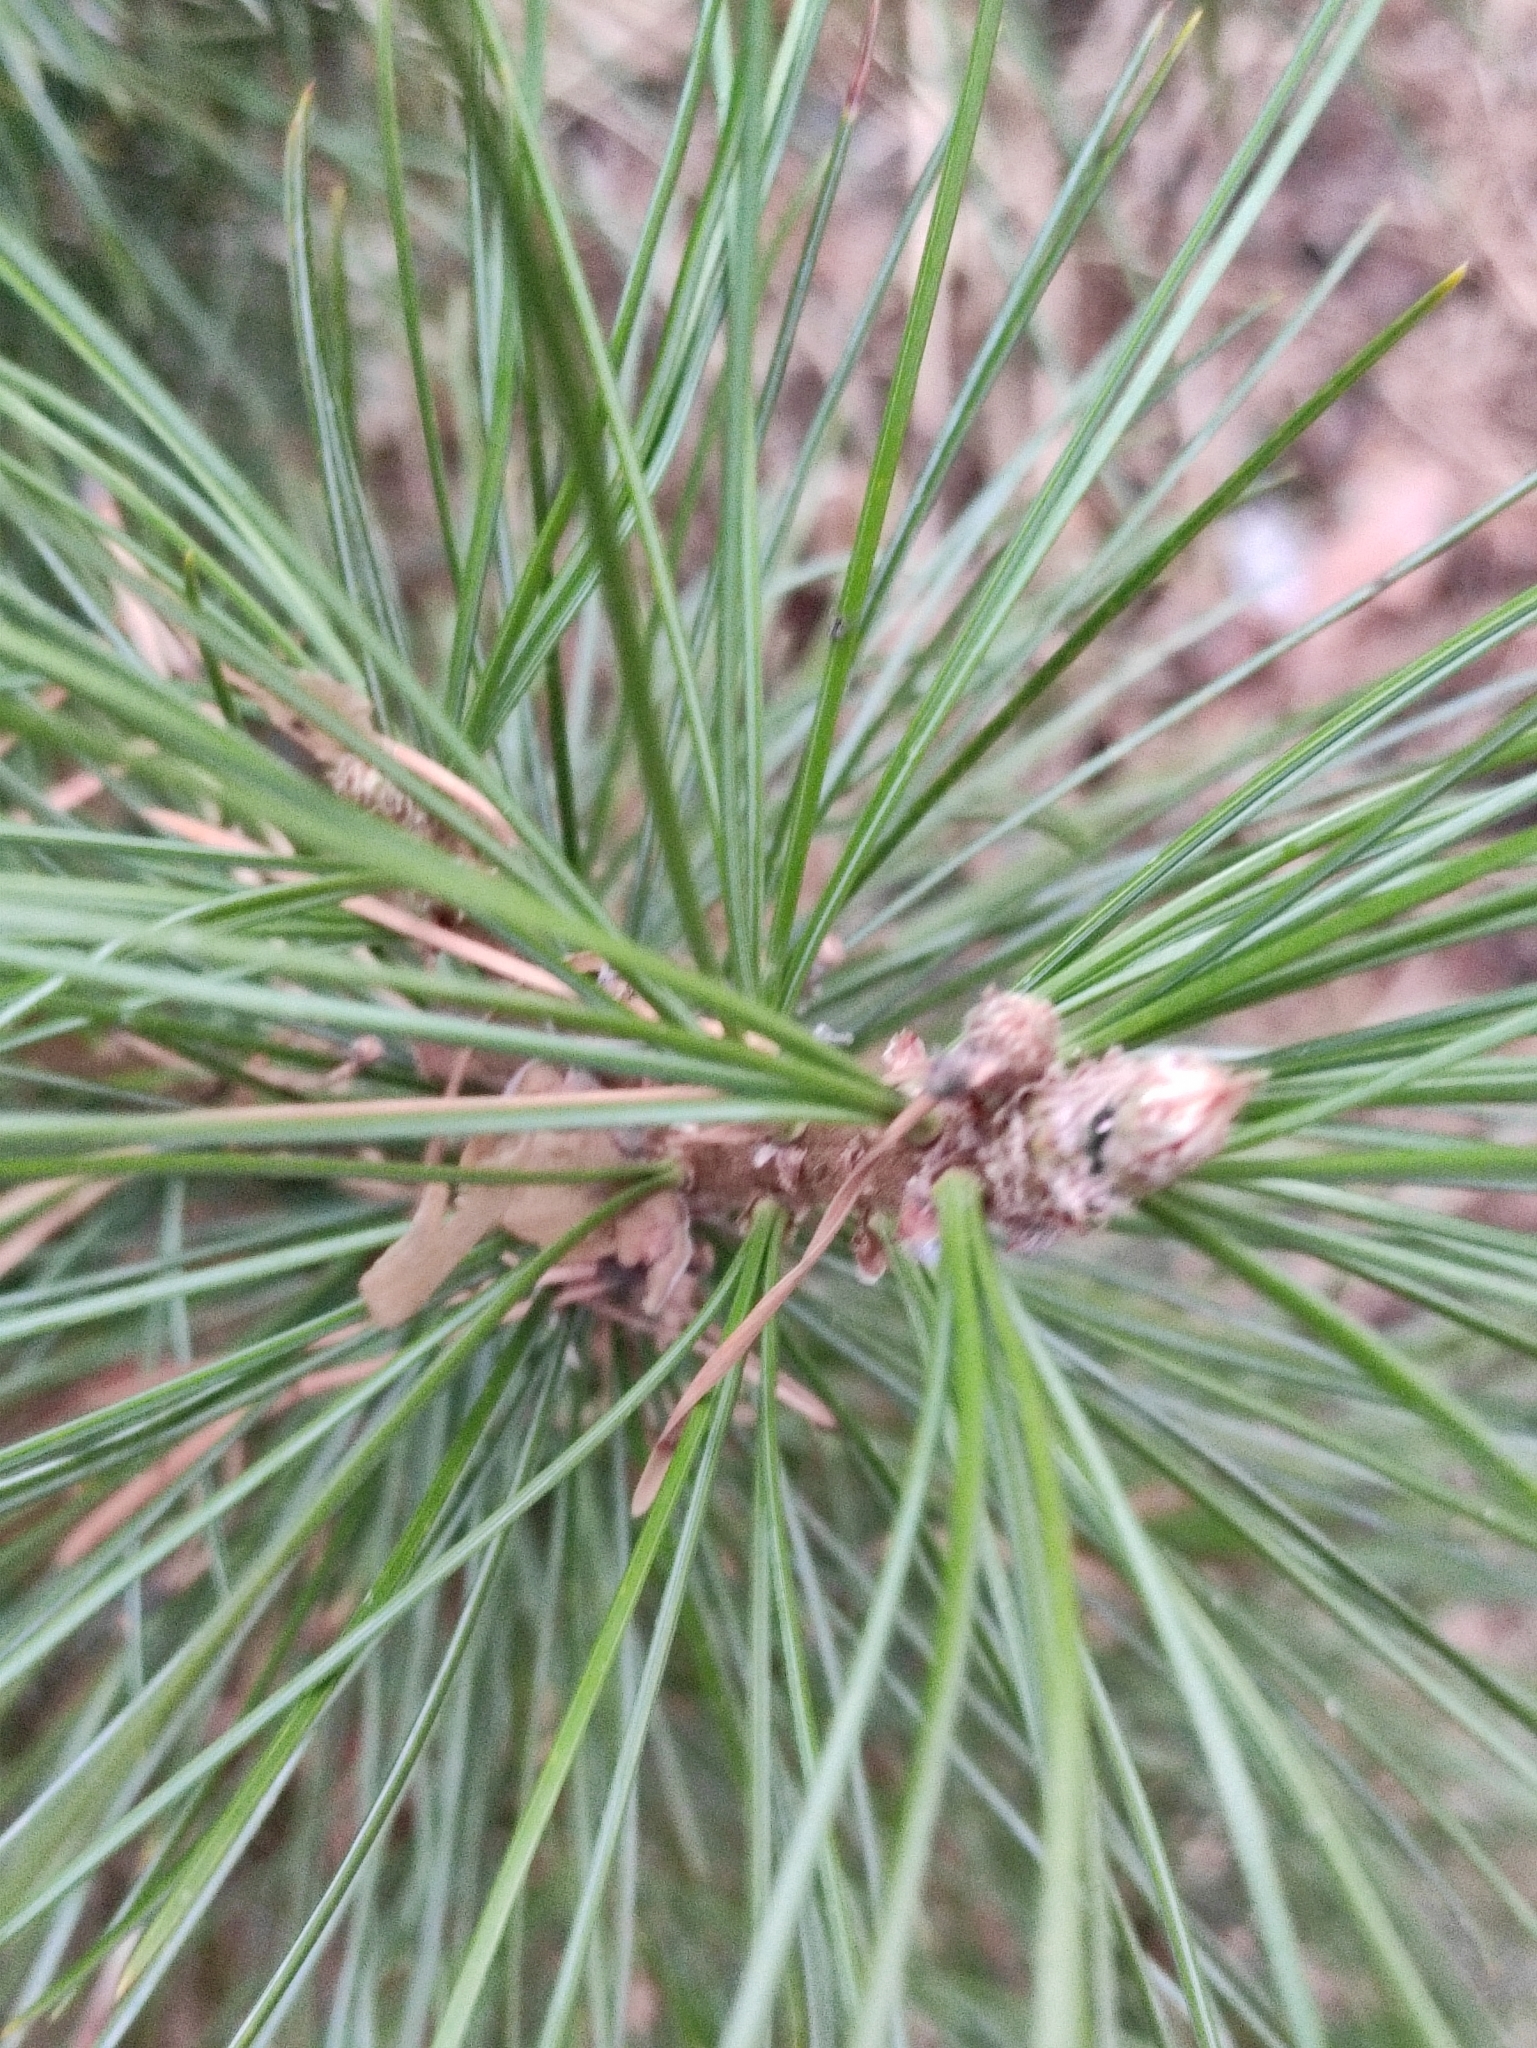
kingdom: Plantae
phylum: Tracheophyta
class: Pinopsida
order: Pinales
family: Pinaceae
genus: Pinus
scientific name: Pinus sibirica
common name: Siberian pine
